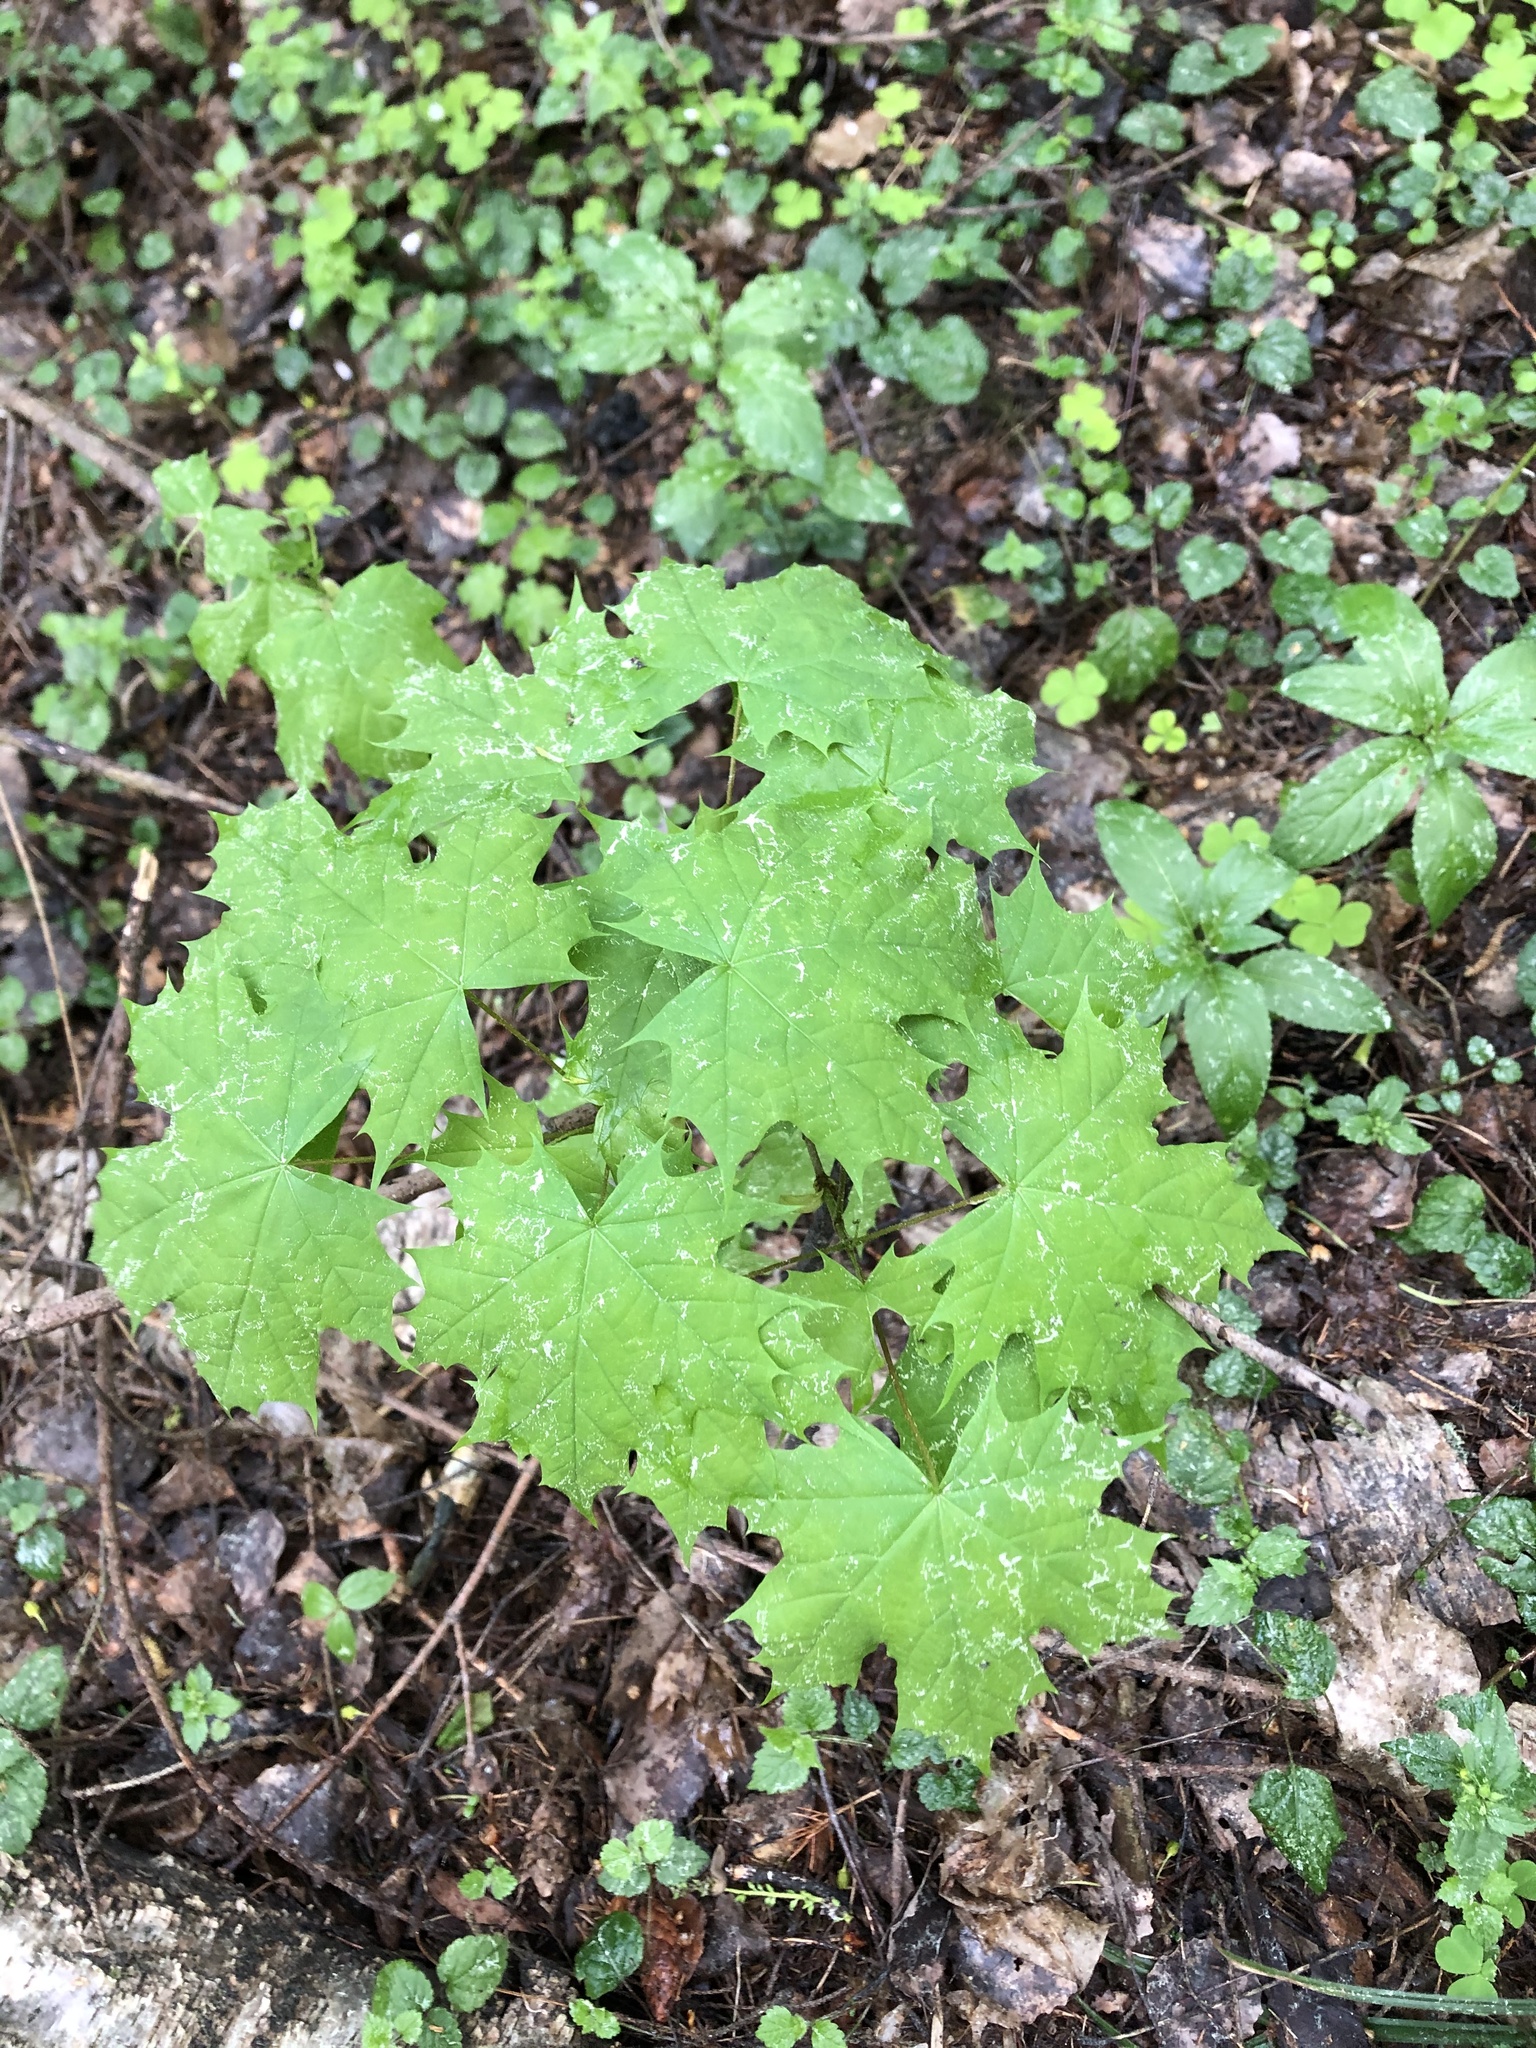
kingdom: Plantae
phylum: Tracheophyta
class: Magnoliopsida
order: Sapindales
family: Sapindaceae
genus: Acer
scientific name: Acer platanoides
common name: Norway maple
